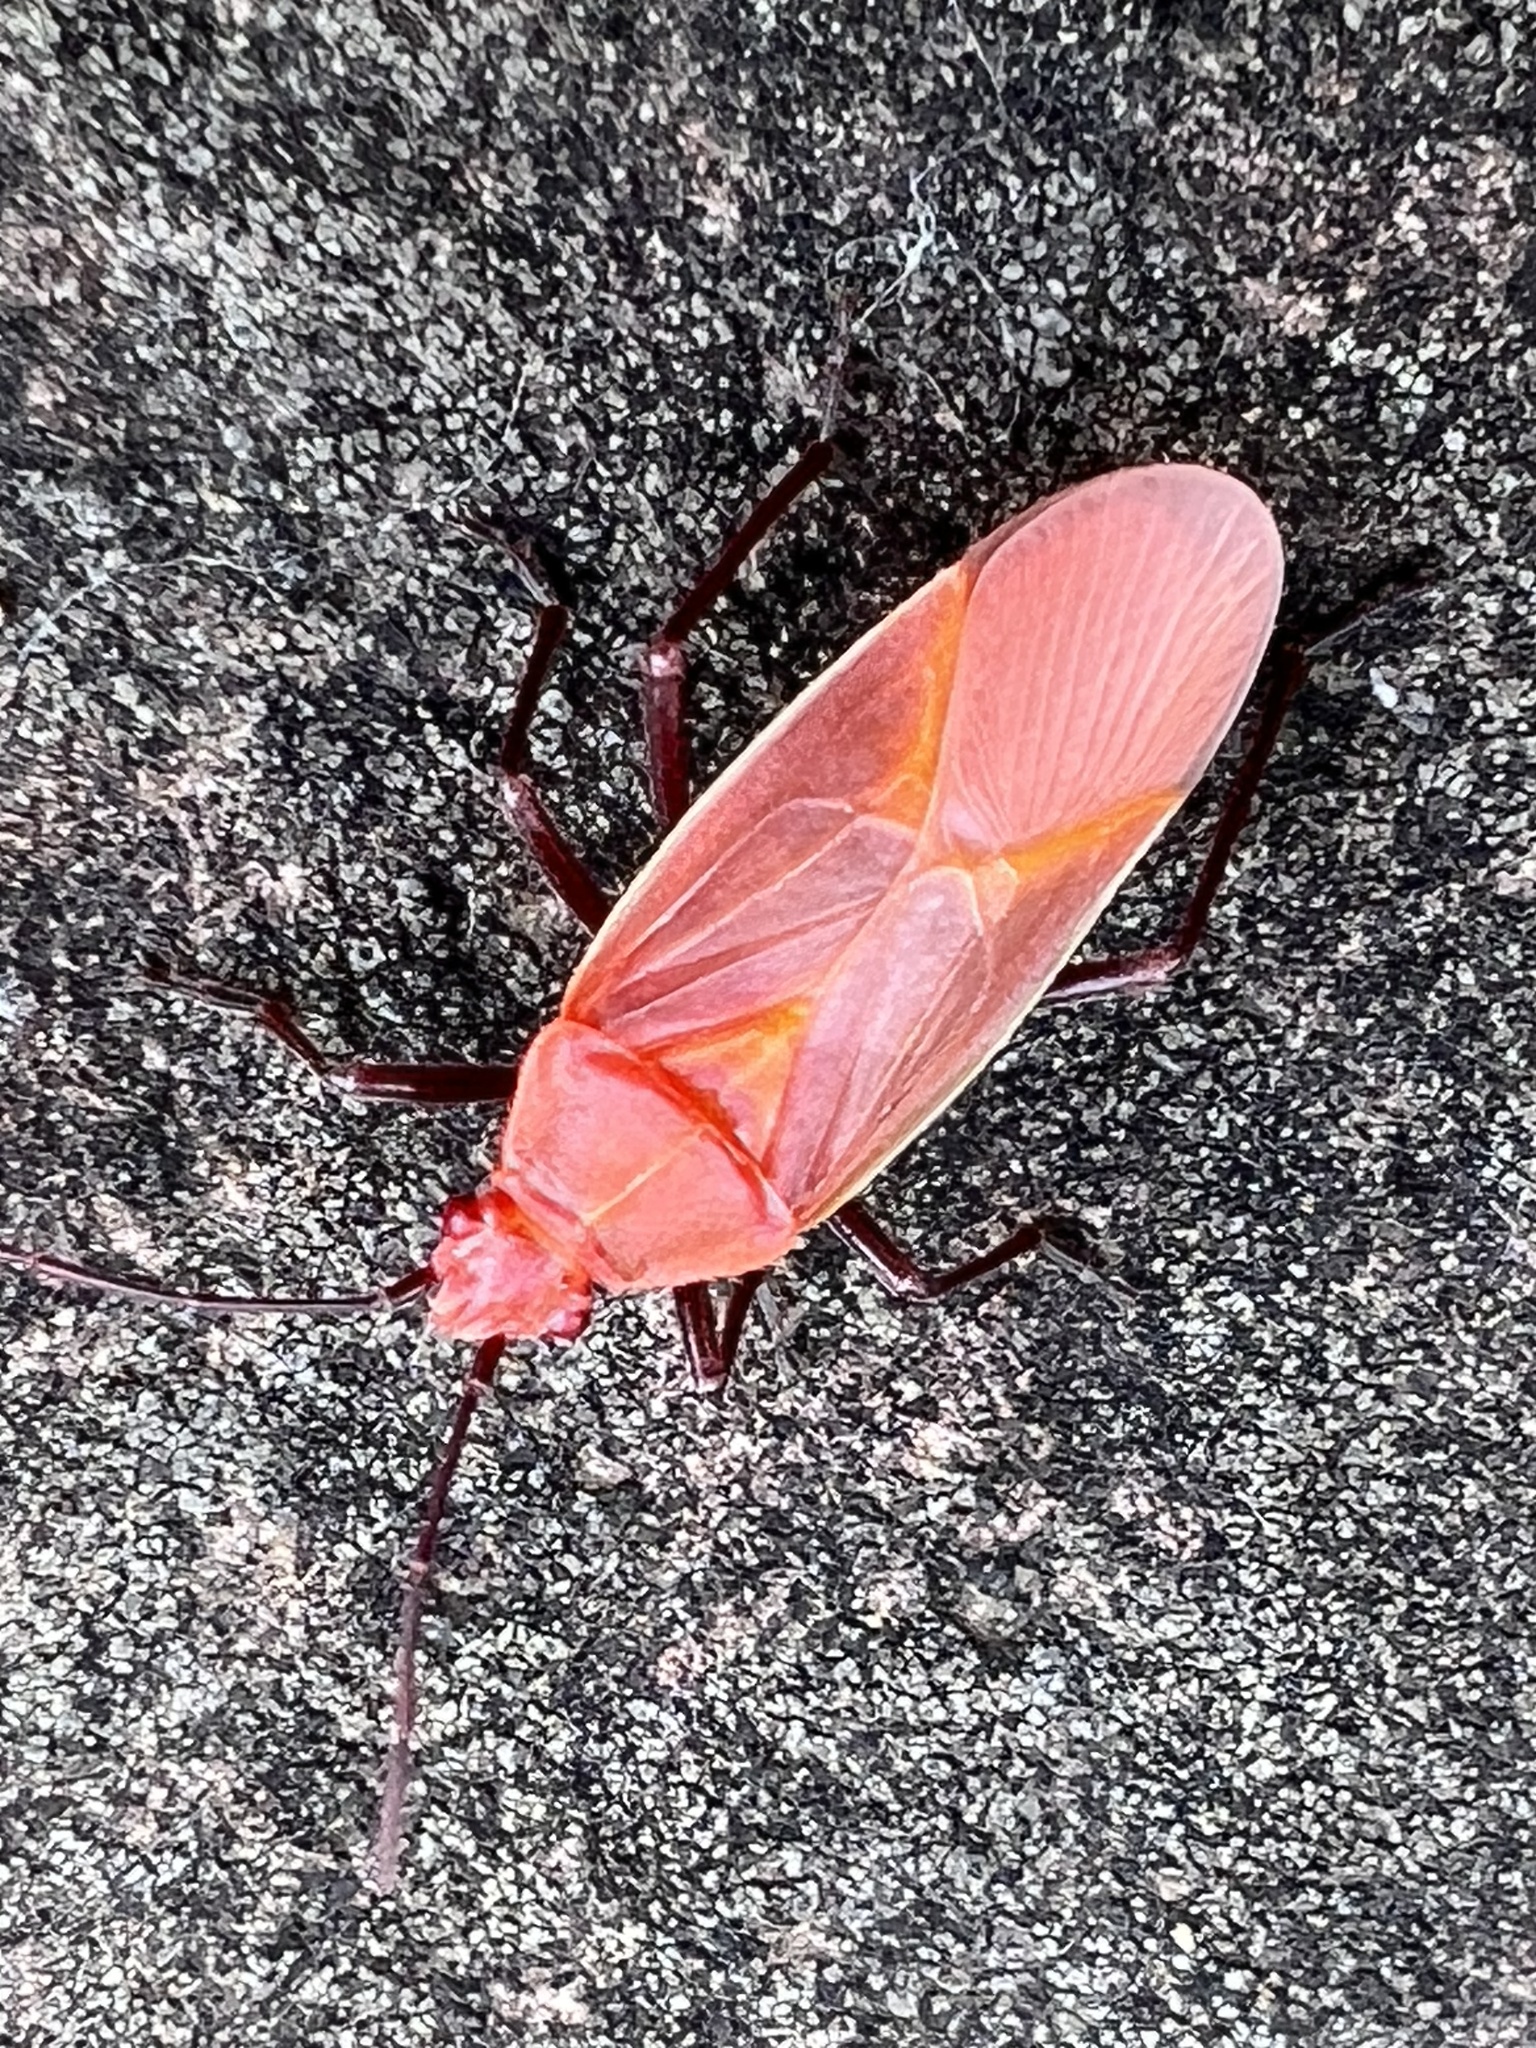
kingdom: Animalia
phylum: Arthropoda
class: Insecta
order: Hemiptera
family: Rhopalidae
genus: Boisea
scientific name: Boisea trivittata
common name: Boxelder bug
